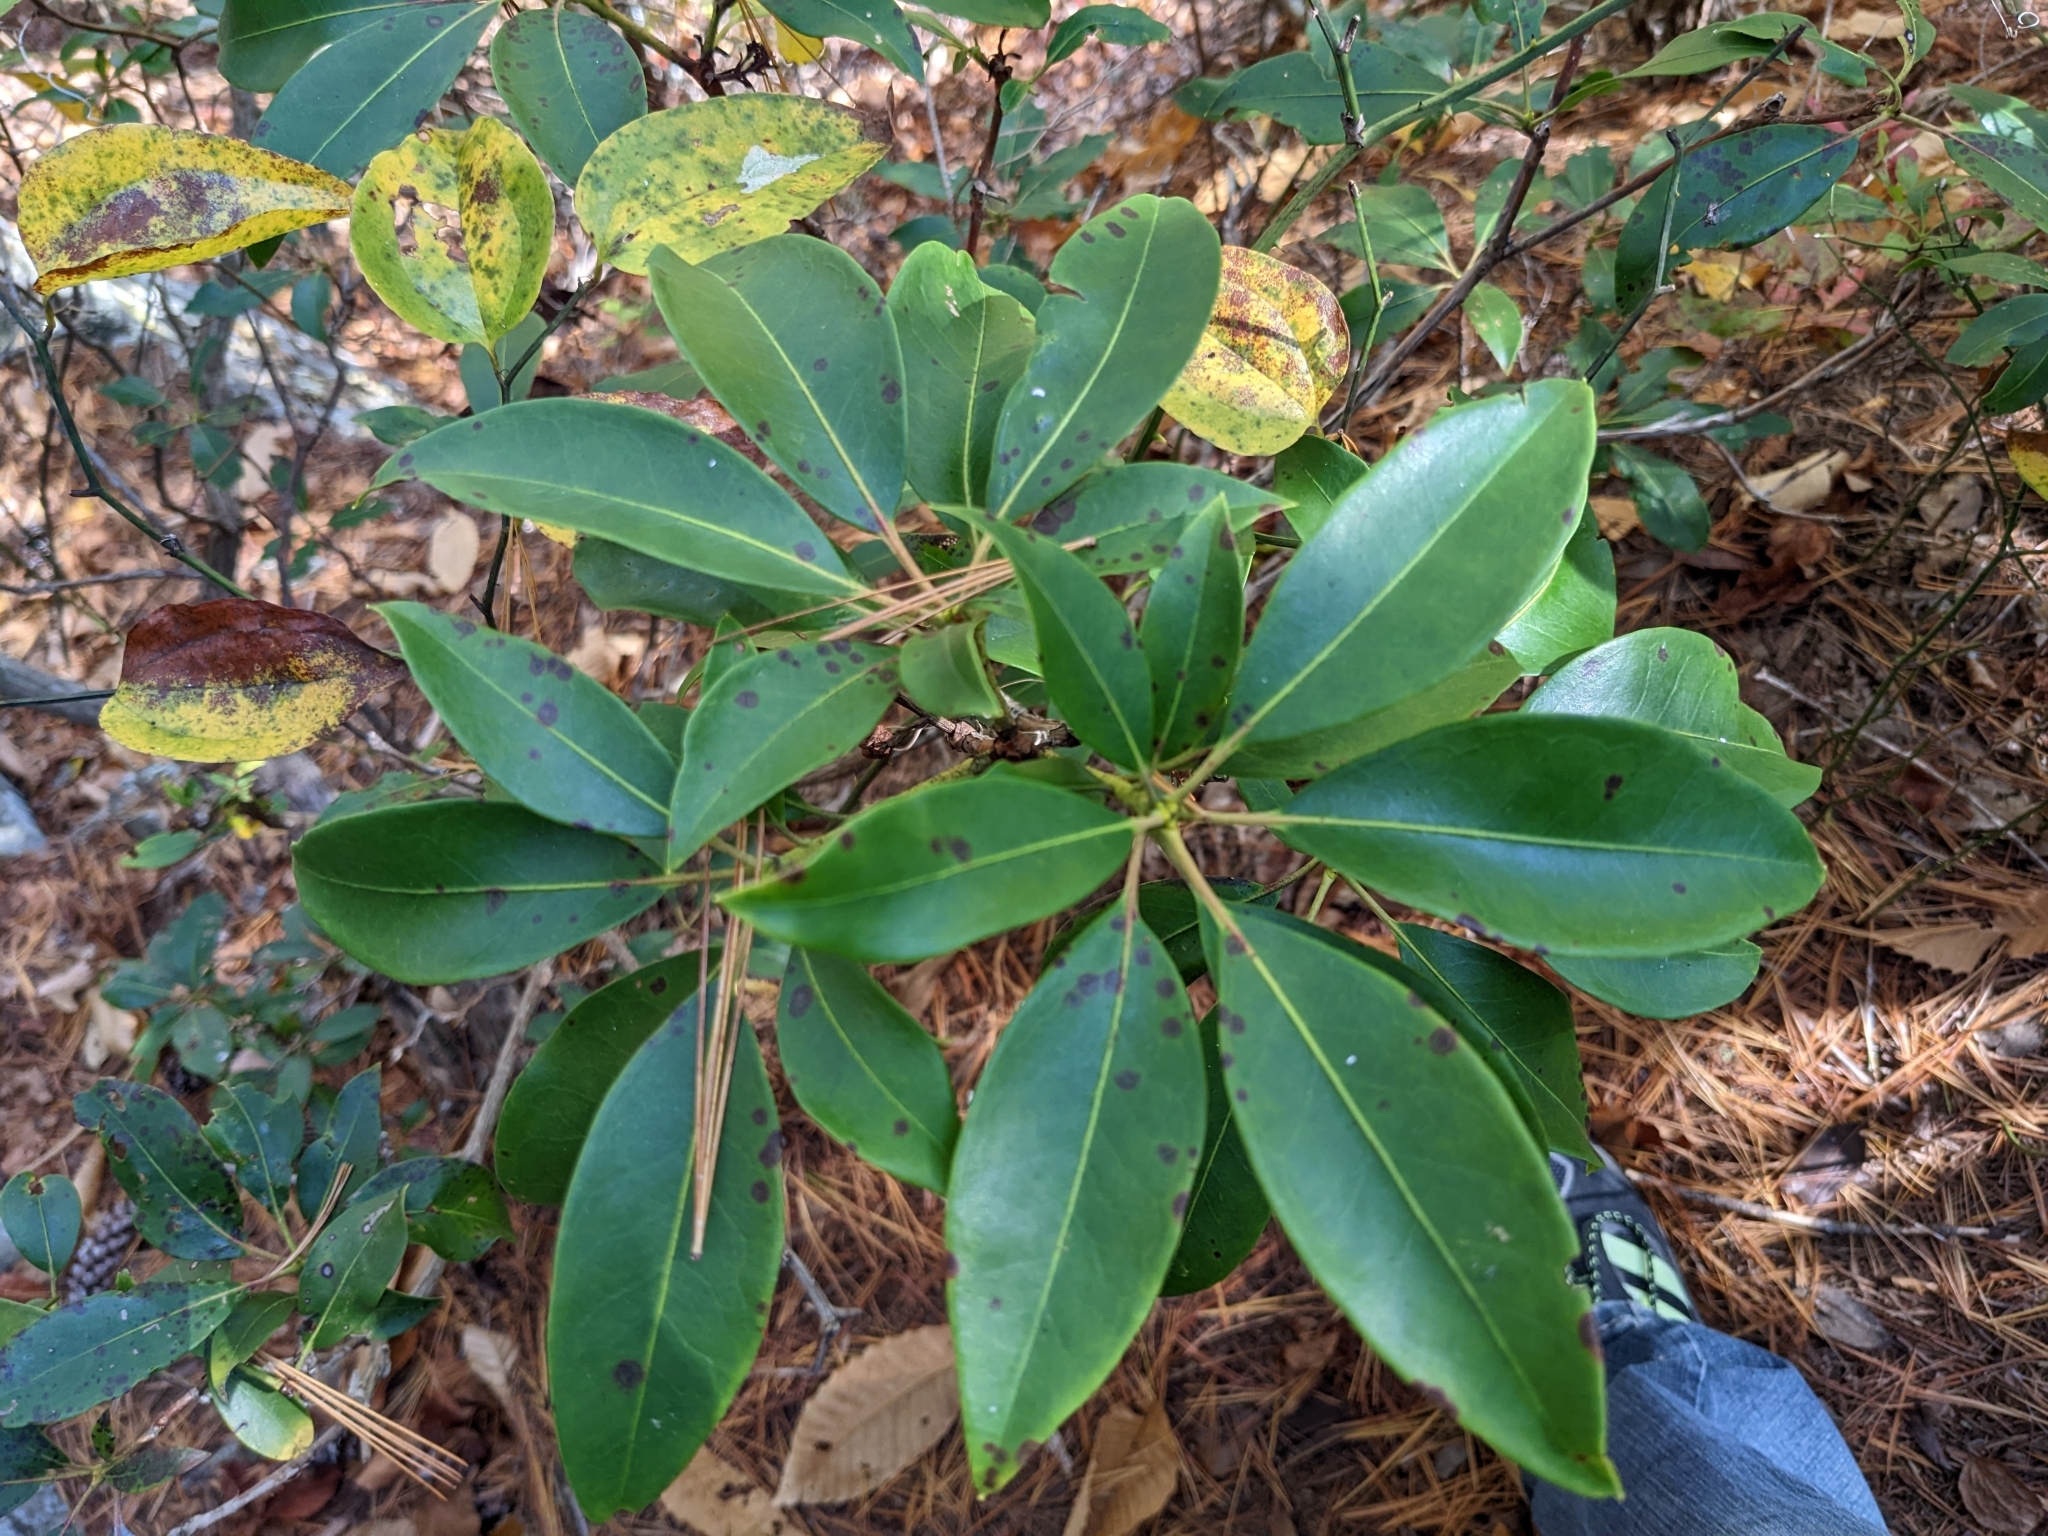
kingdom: Plantae
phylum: Tracheophyta
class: Magnoliopsida
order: Ericales
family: Ericaceae
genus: Kalmia
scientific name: Kalmia latifolia
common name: Mountain-laurel
